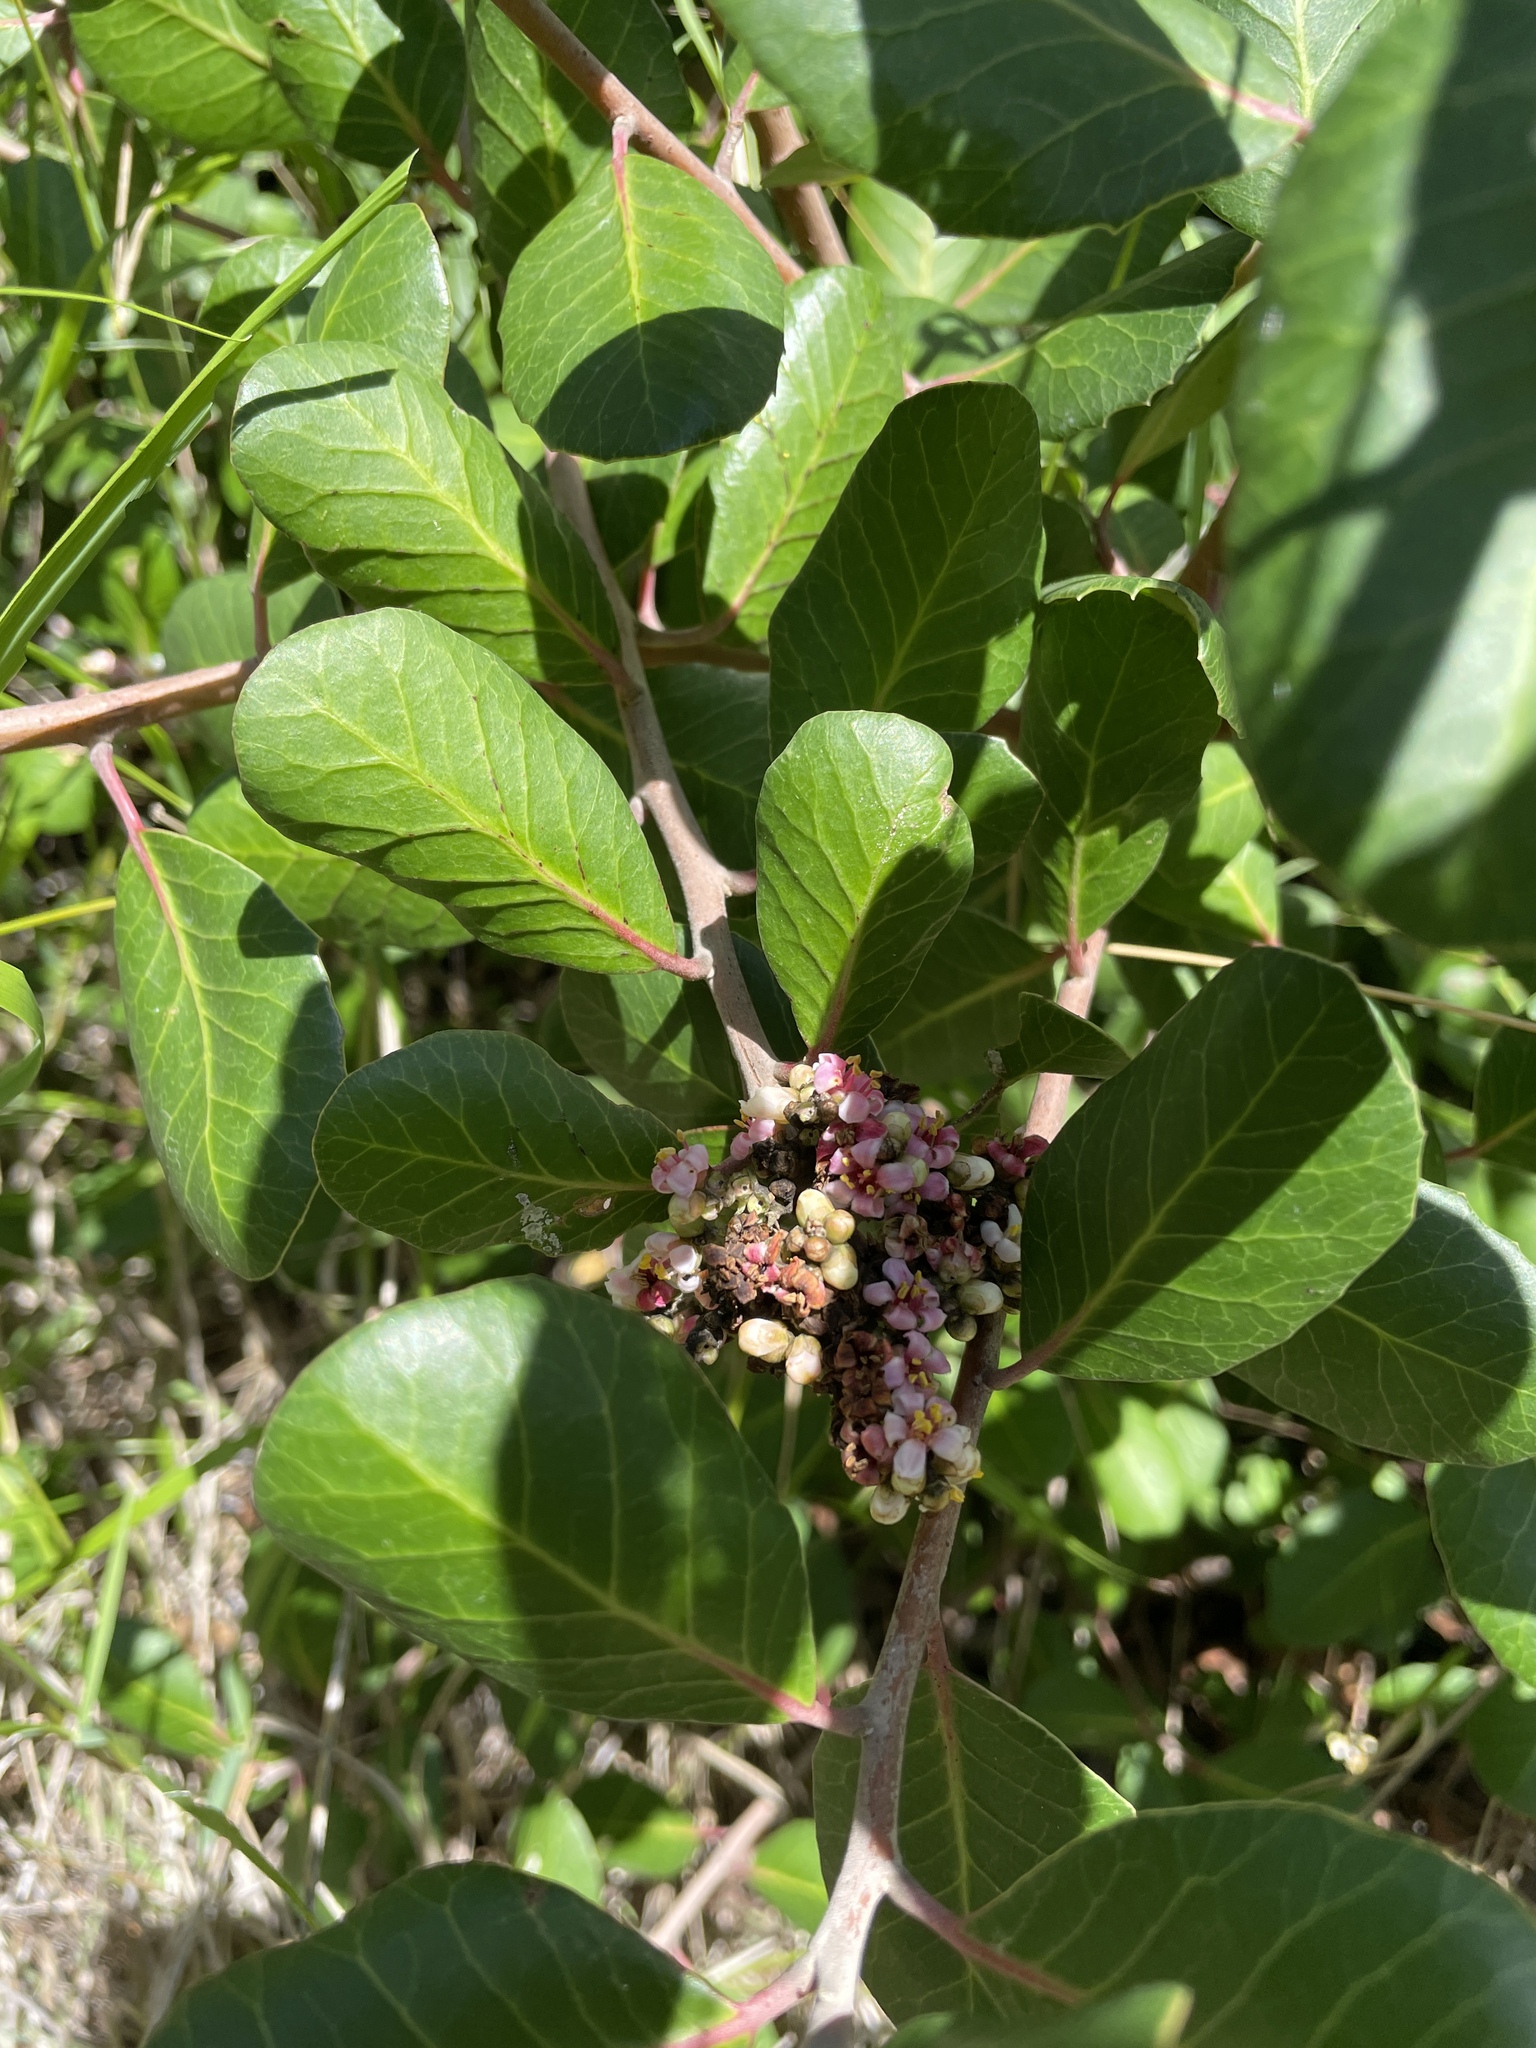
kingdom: Plantae
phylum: Tracheophyta
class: Magnoliopsida
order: Sapindales
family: Anacardiaceae
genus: Rhus
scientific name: Rhus integrifolia
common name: Lemonade sumac
